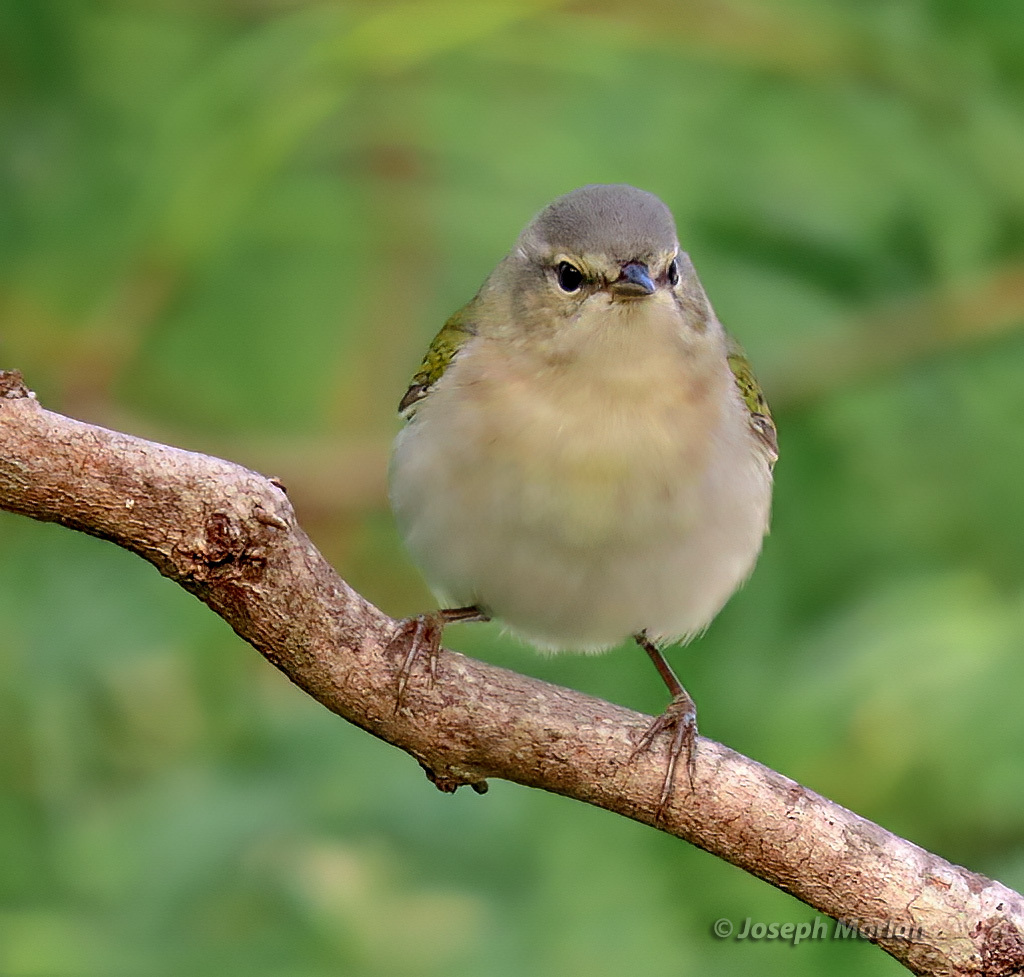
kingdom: Animalia
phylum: Chordata
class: Aves
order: Passeriformes
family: Parulidae
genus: Leiothlypis
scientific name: Leiothlypis peregrina
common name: Tennessee warbler
